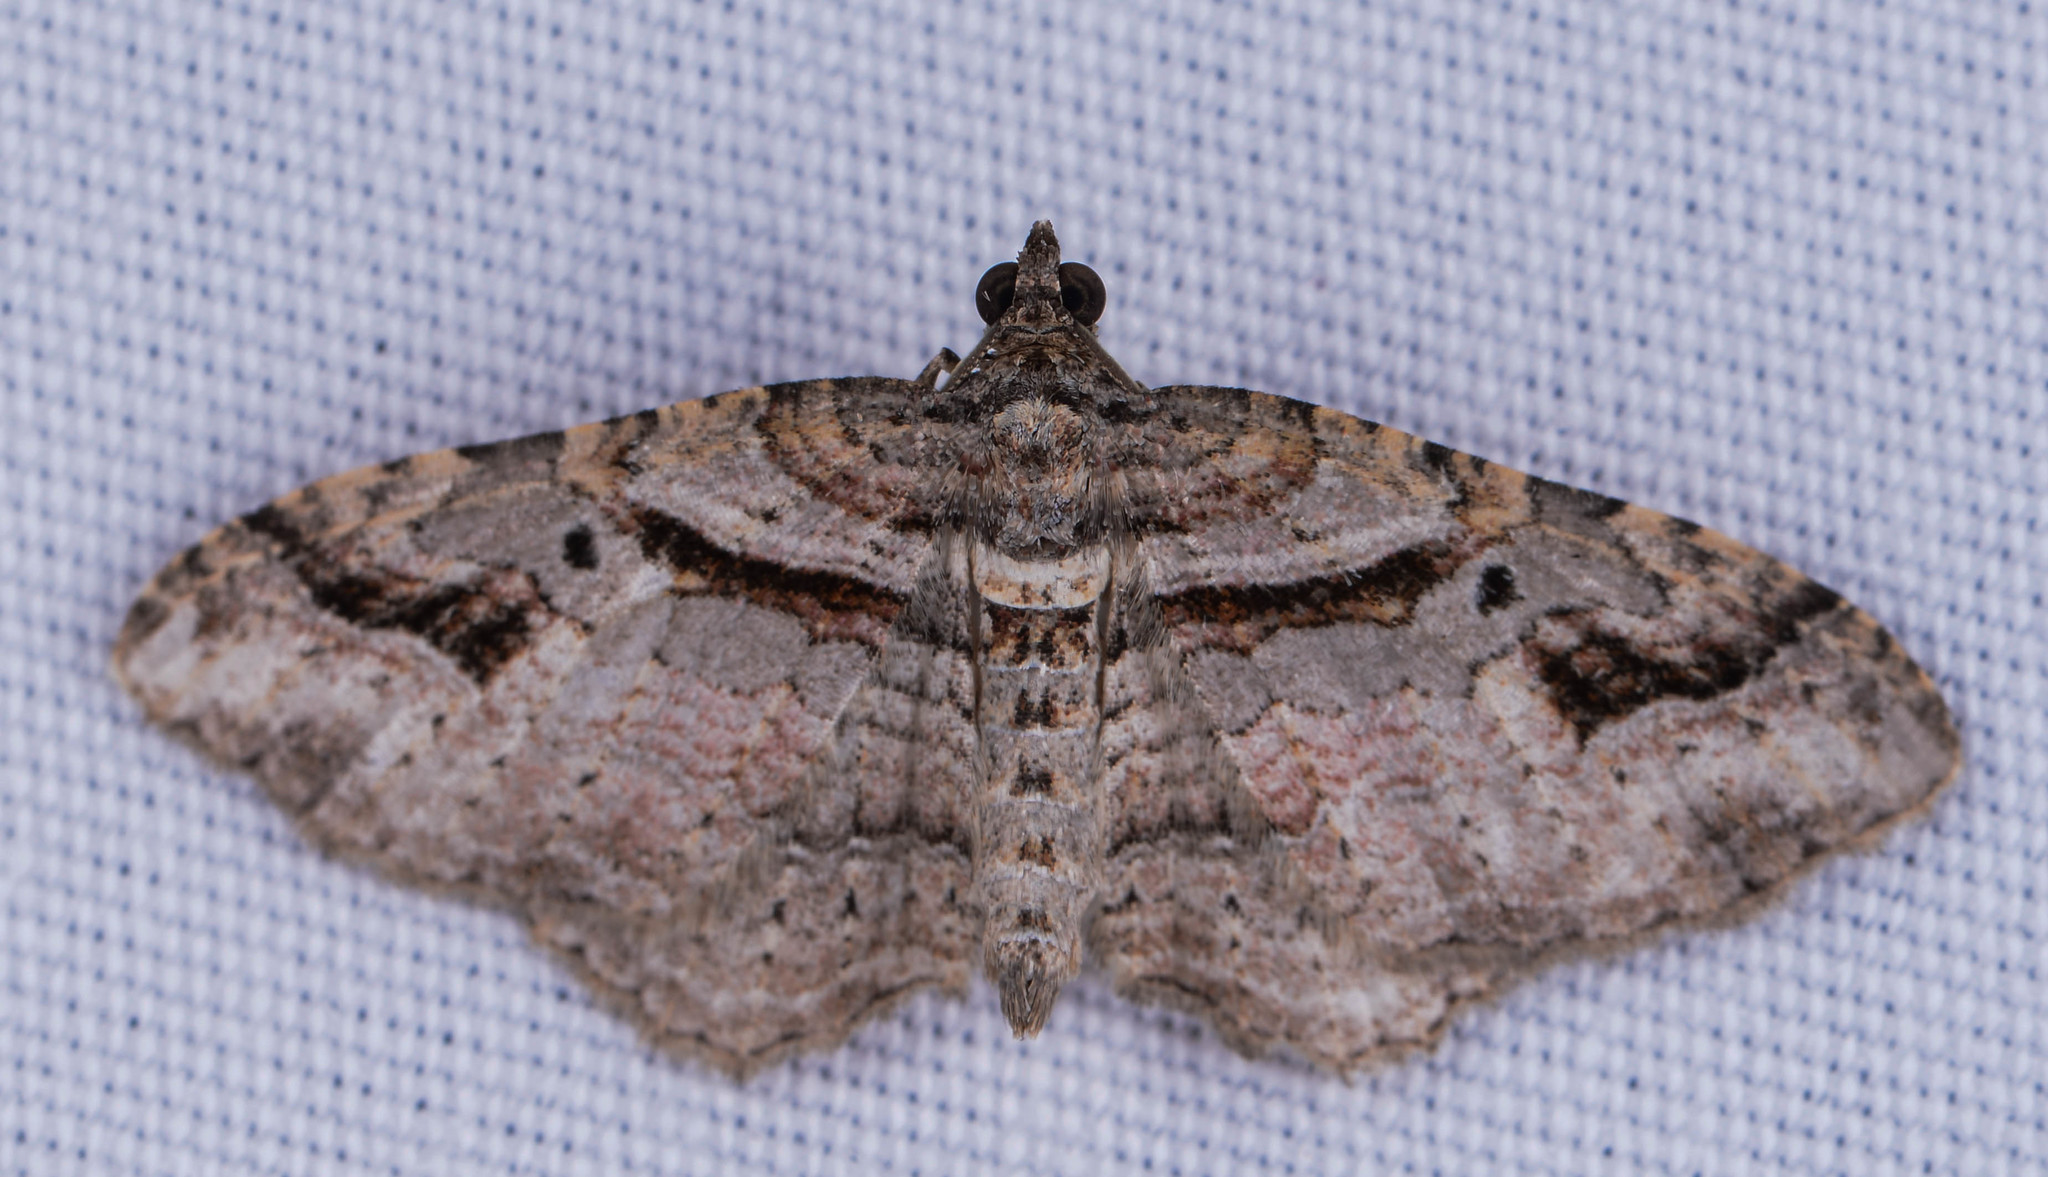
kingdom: Animalia
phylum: Arthropoda
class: Insecta
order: Lepidoptera
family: Geometridae
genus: Costaconvexa
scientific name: Costaconvexa centrostrigaria
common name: Bent-line carpet
